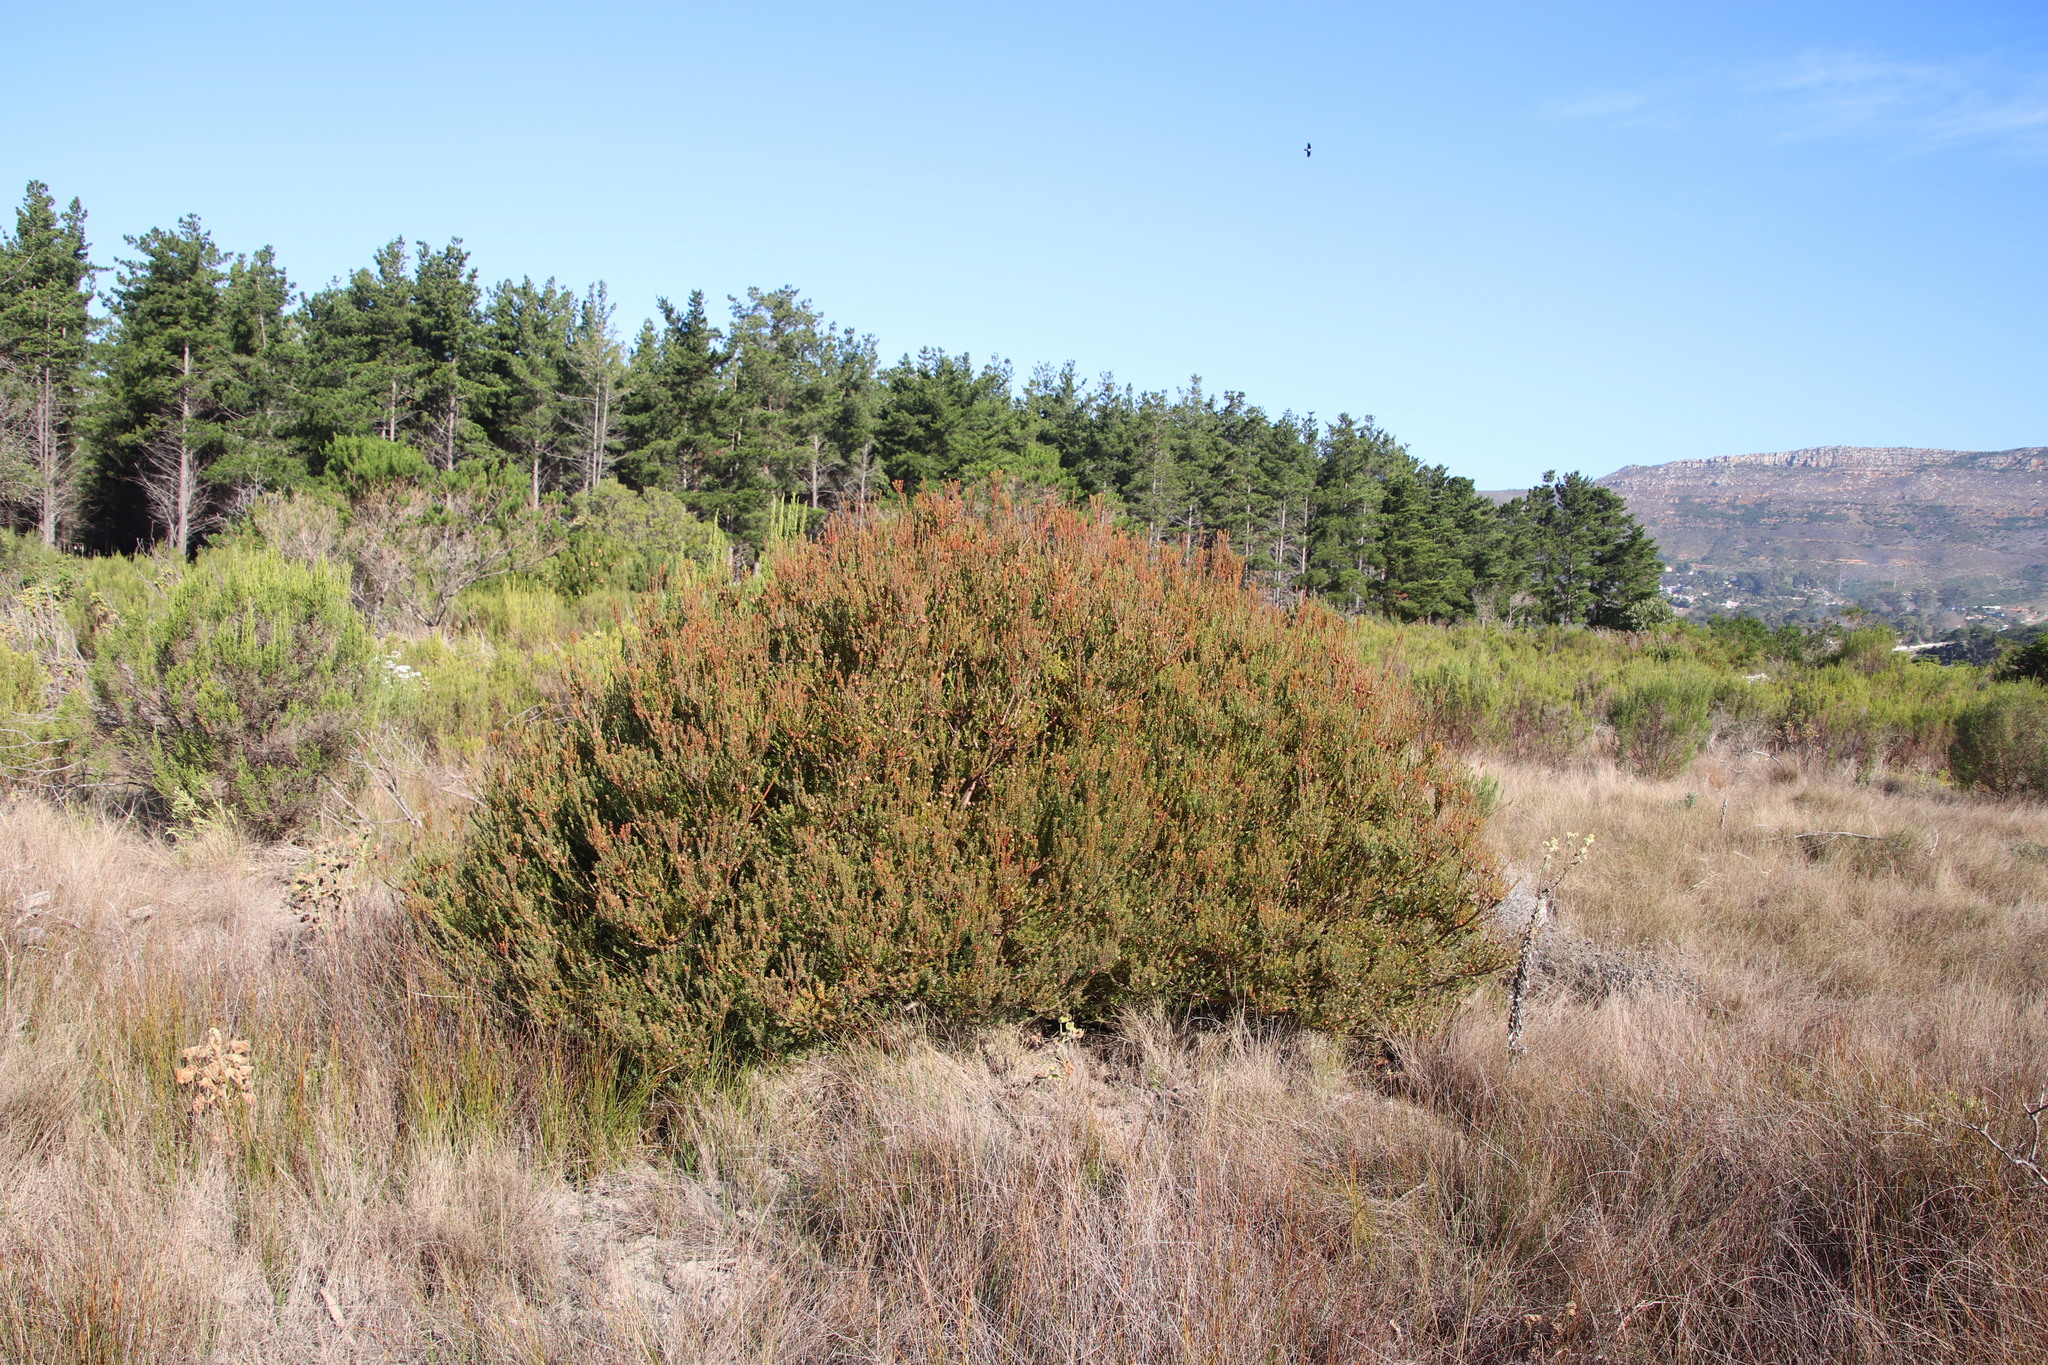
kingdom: Plantae
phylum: Tracheophyta
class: Magnoliopsida
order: Proteales
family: Proteaceae
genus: Leucadendron
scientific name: Leucadendron levisanus
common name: Cape flats conebush
